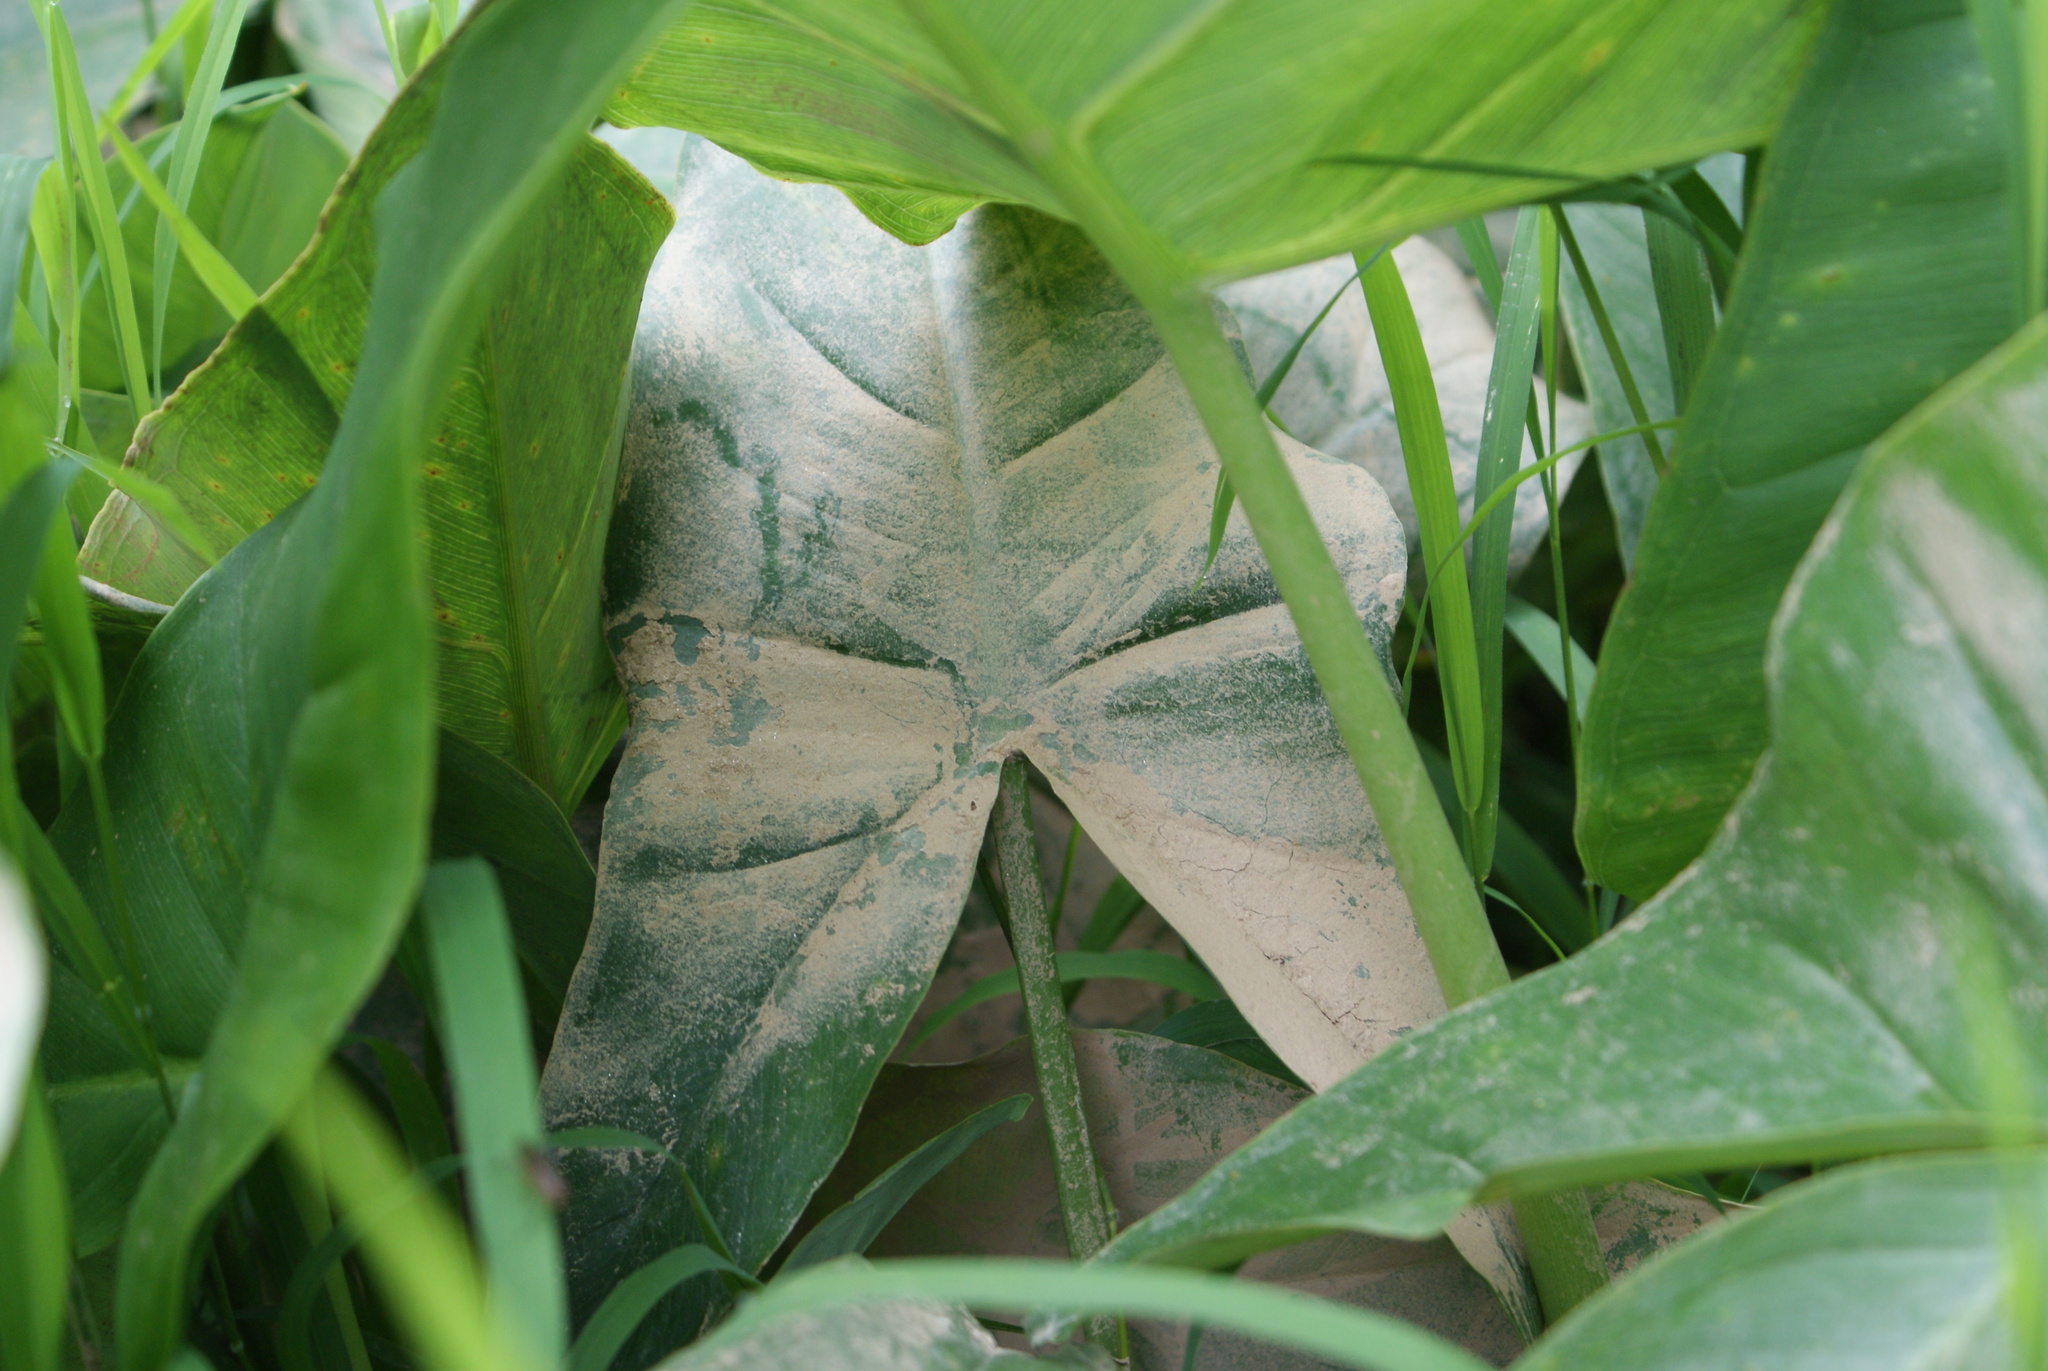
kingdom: Plantae
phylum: Tracheophyta
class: Liliopsida
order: Alismatales
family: Araceae
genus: Peltandra
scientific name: Peltandra virginica
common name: Arrow arum
